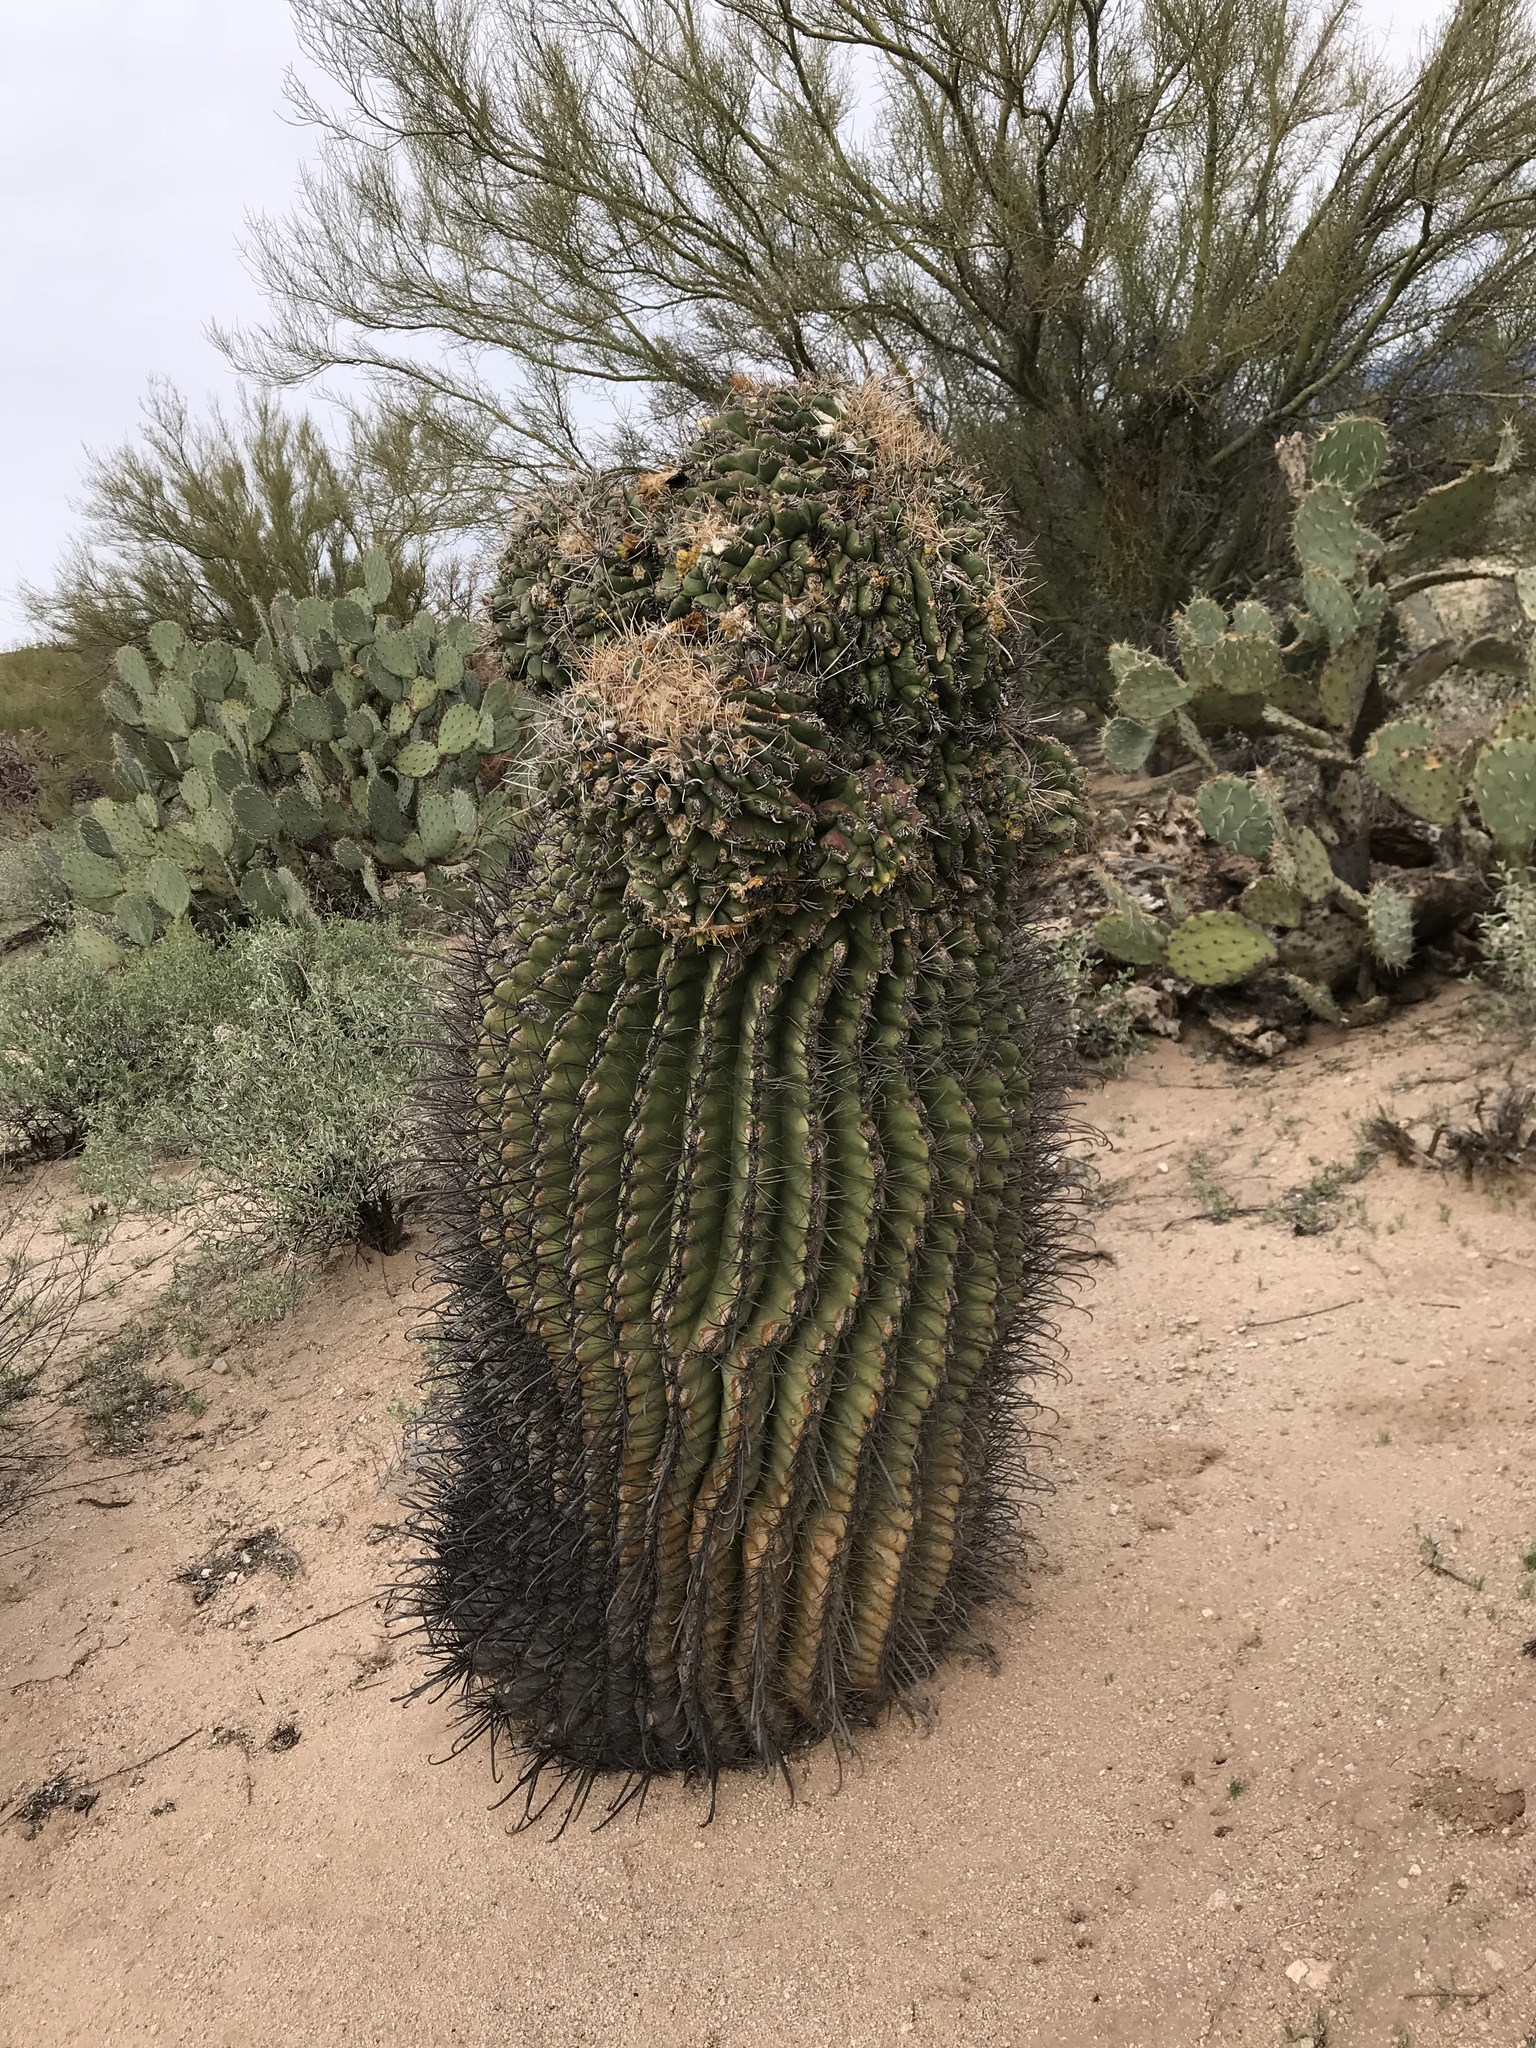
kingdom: Plantae
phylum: Tracheophyta
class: Magnoliopsida
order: Caryophyllales
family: Cactaceae
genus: Ferocactus
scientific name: Ferocactus wislizeni
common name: Candy barrel cactus
